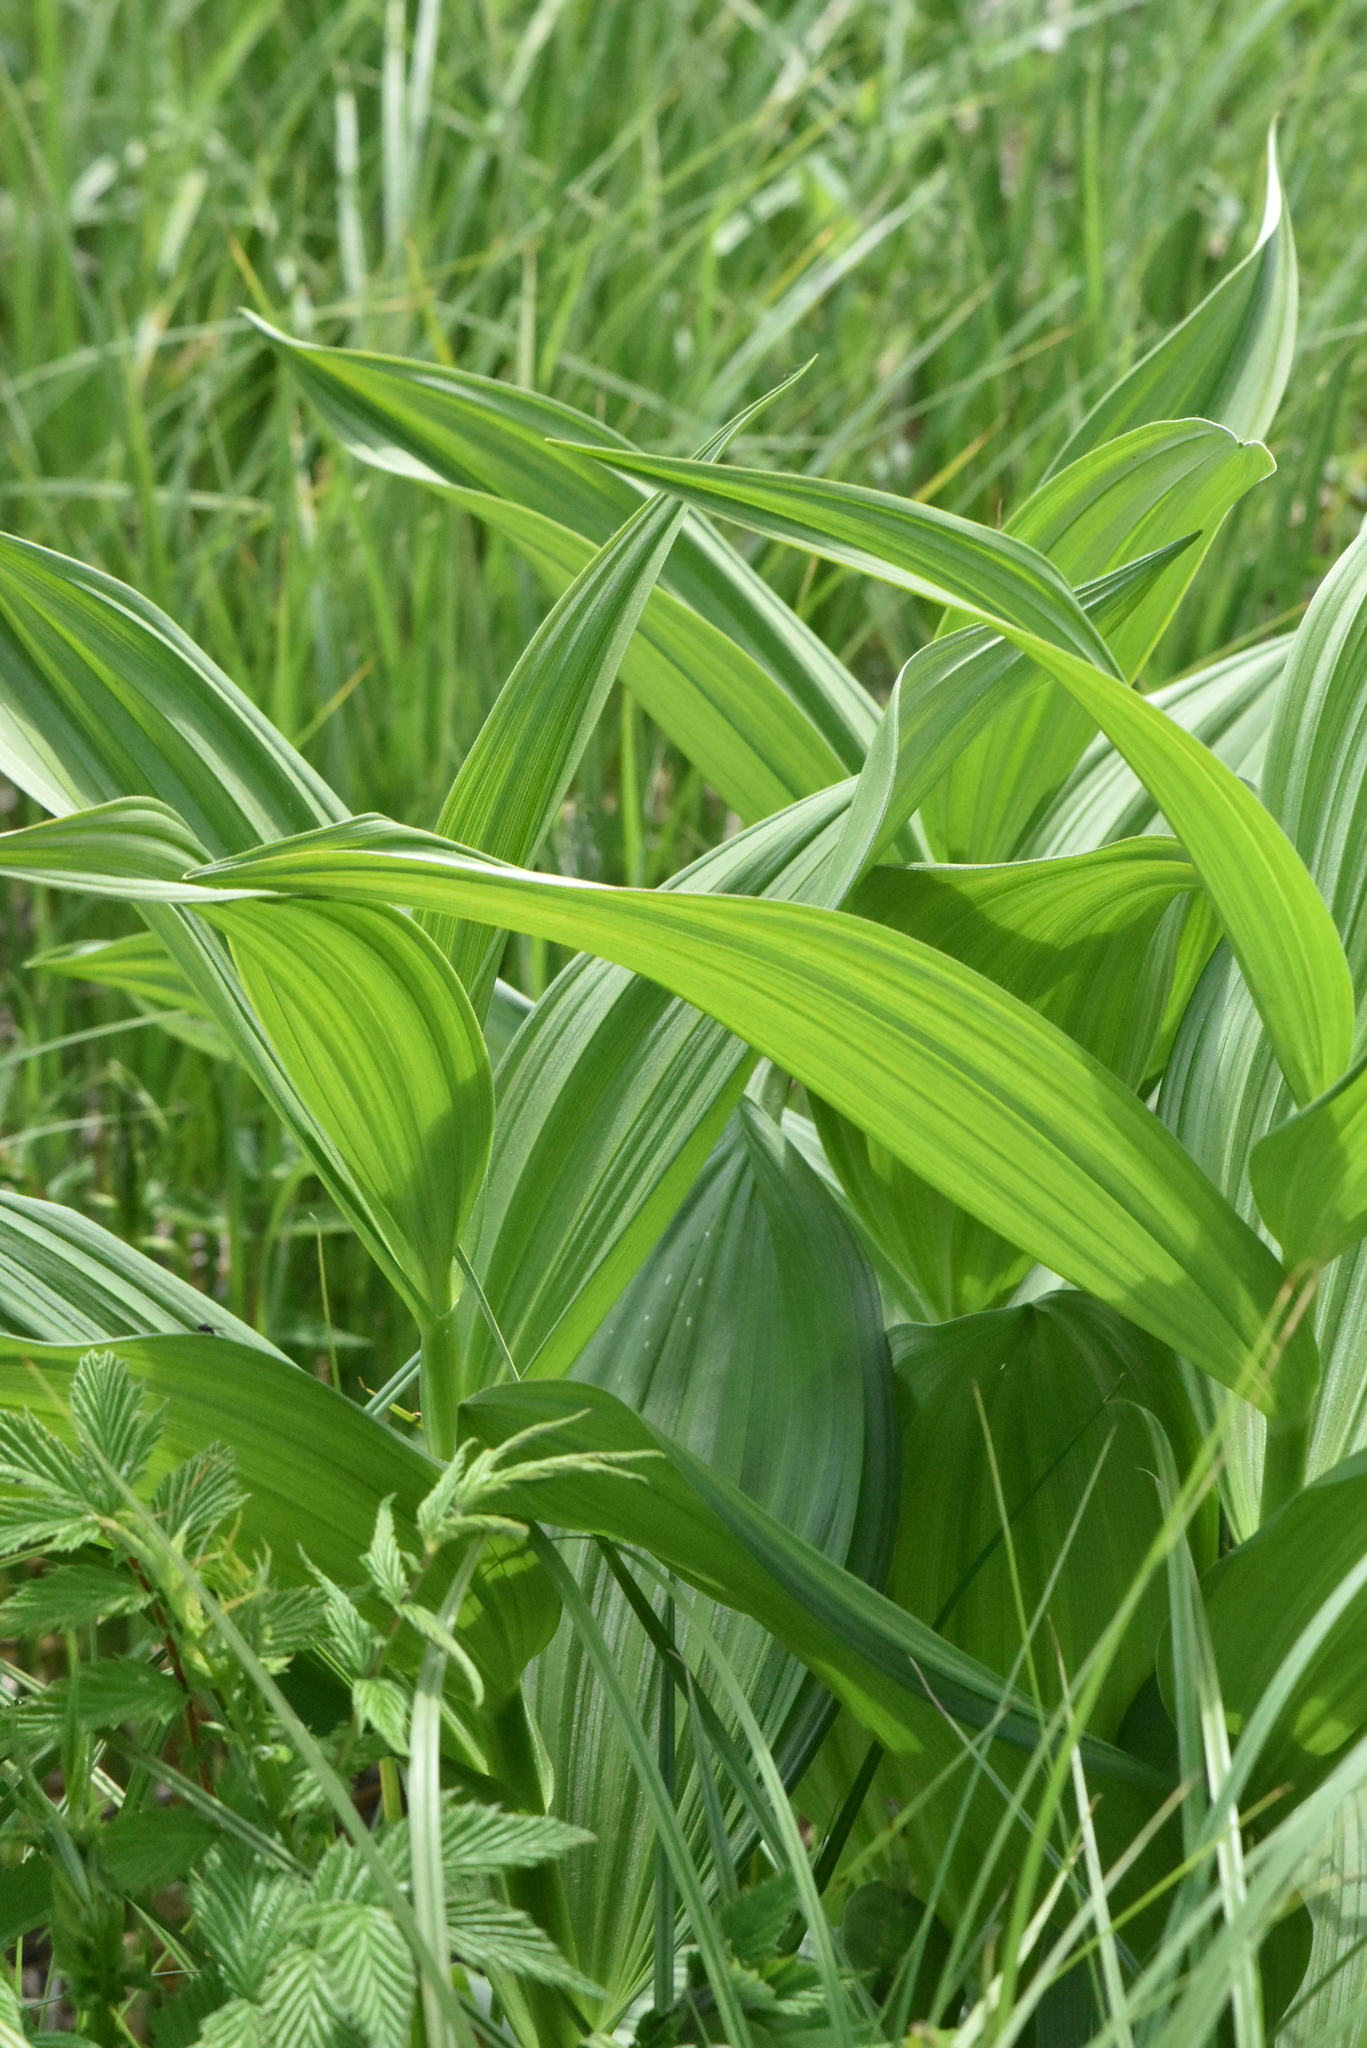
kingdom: Plantae
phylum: Tracheophyta
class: Liliopsida
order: Liliales
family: Melanthiaceae
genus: Veratrum
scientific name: Veratrum lobelianum
